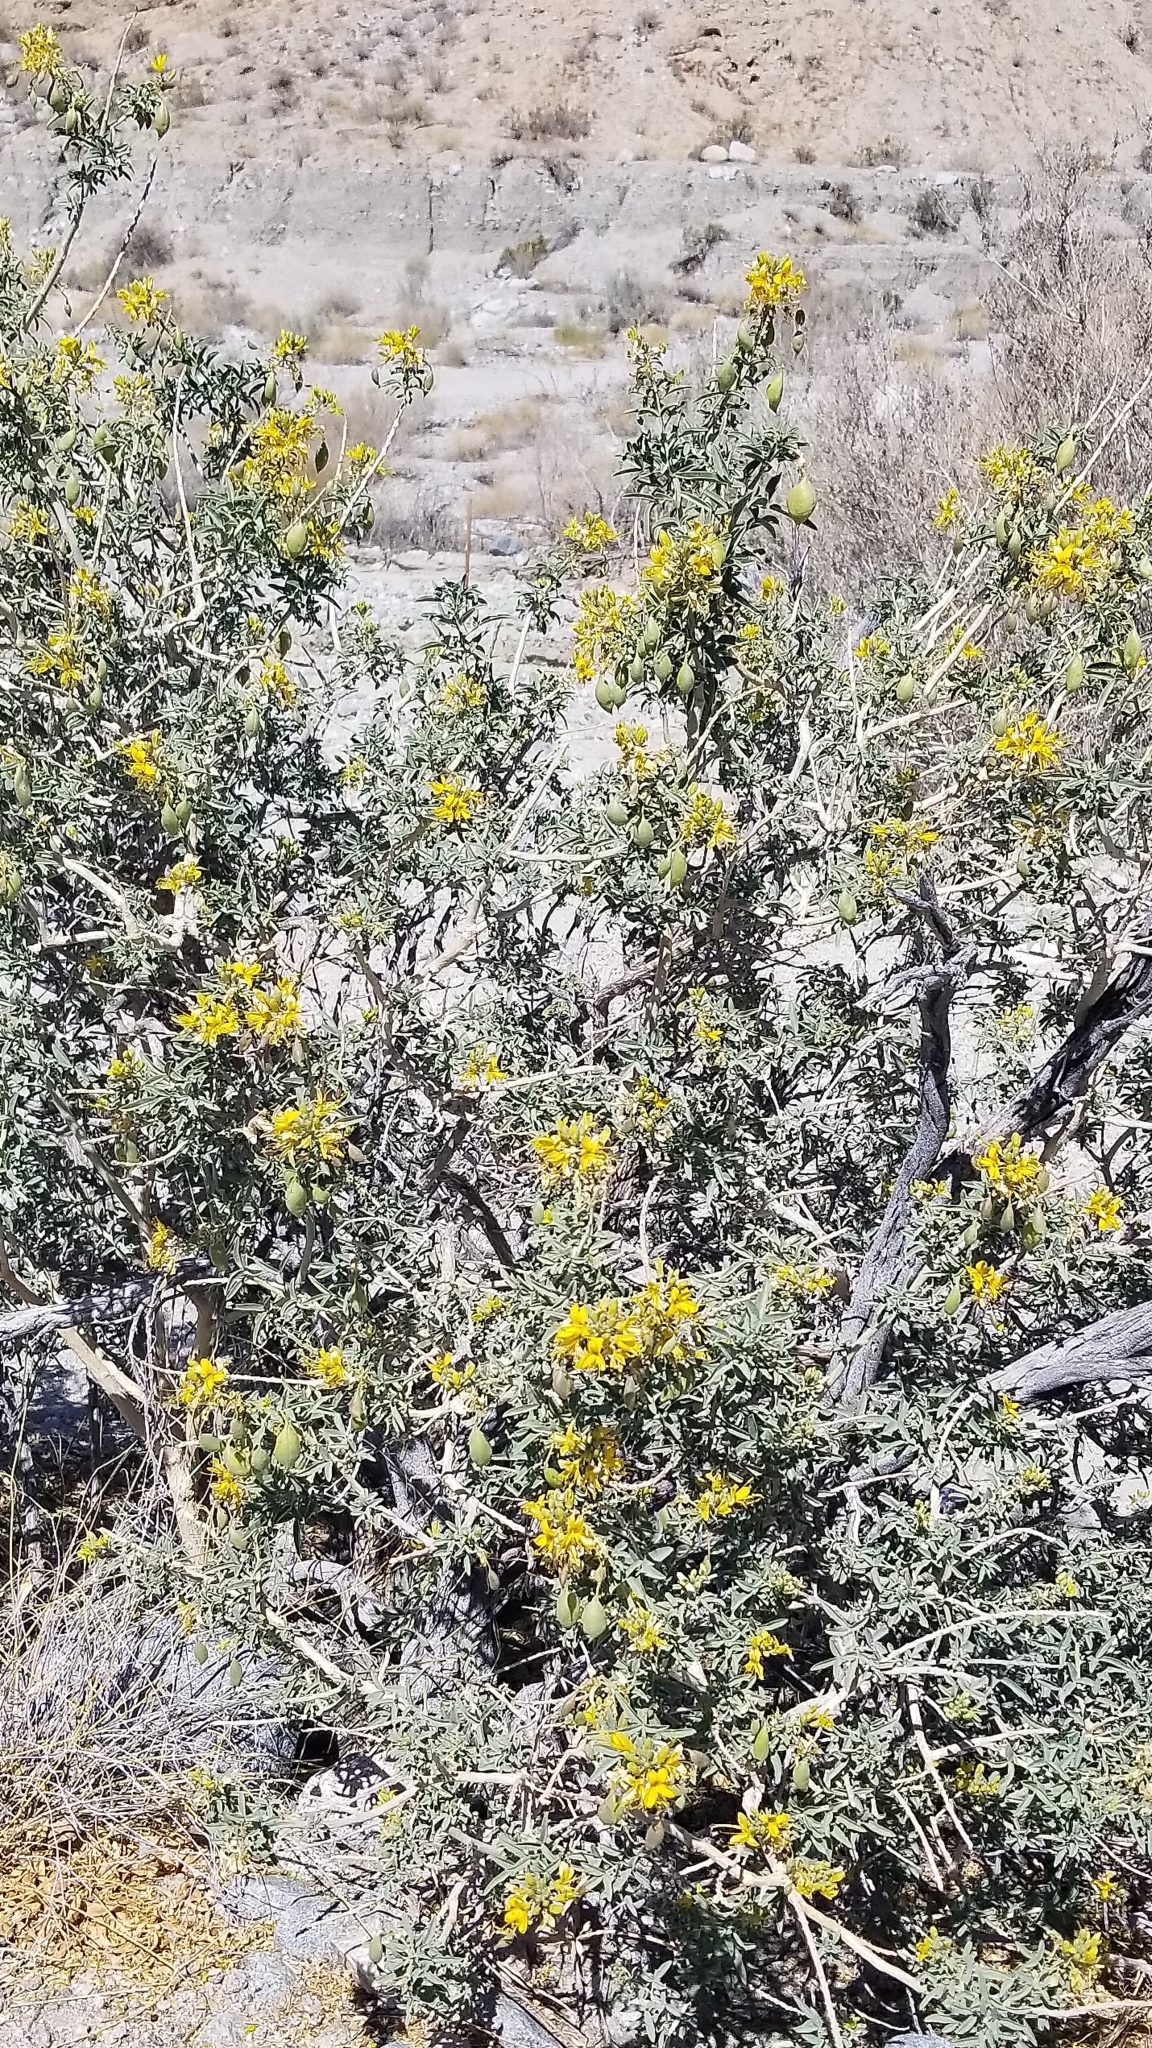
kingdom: Plantae
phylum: Tracheophyta
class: Magnoliopsida
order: Brassicales
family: Cleomaceae
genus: Cleomella
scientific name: Cleomella arborea
